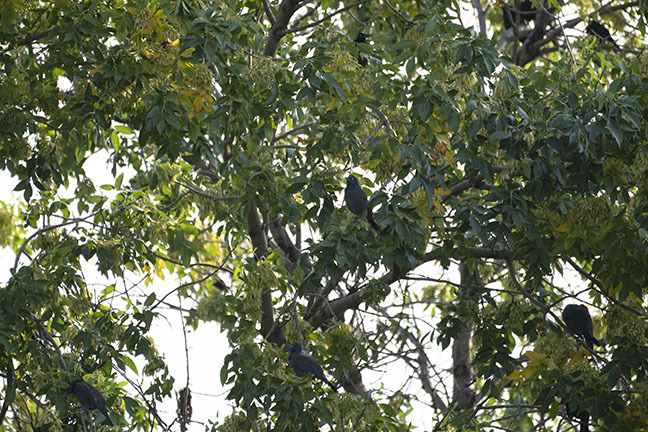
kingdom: Animalia
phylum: Chordata
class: Aves
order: Passeriformes
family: Icteridae
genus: Quiscalus
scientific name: Quiscalus quiscula
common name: Common grackle
